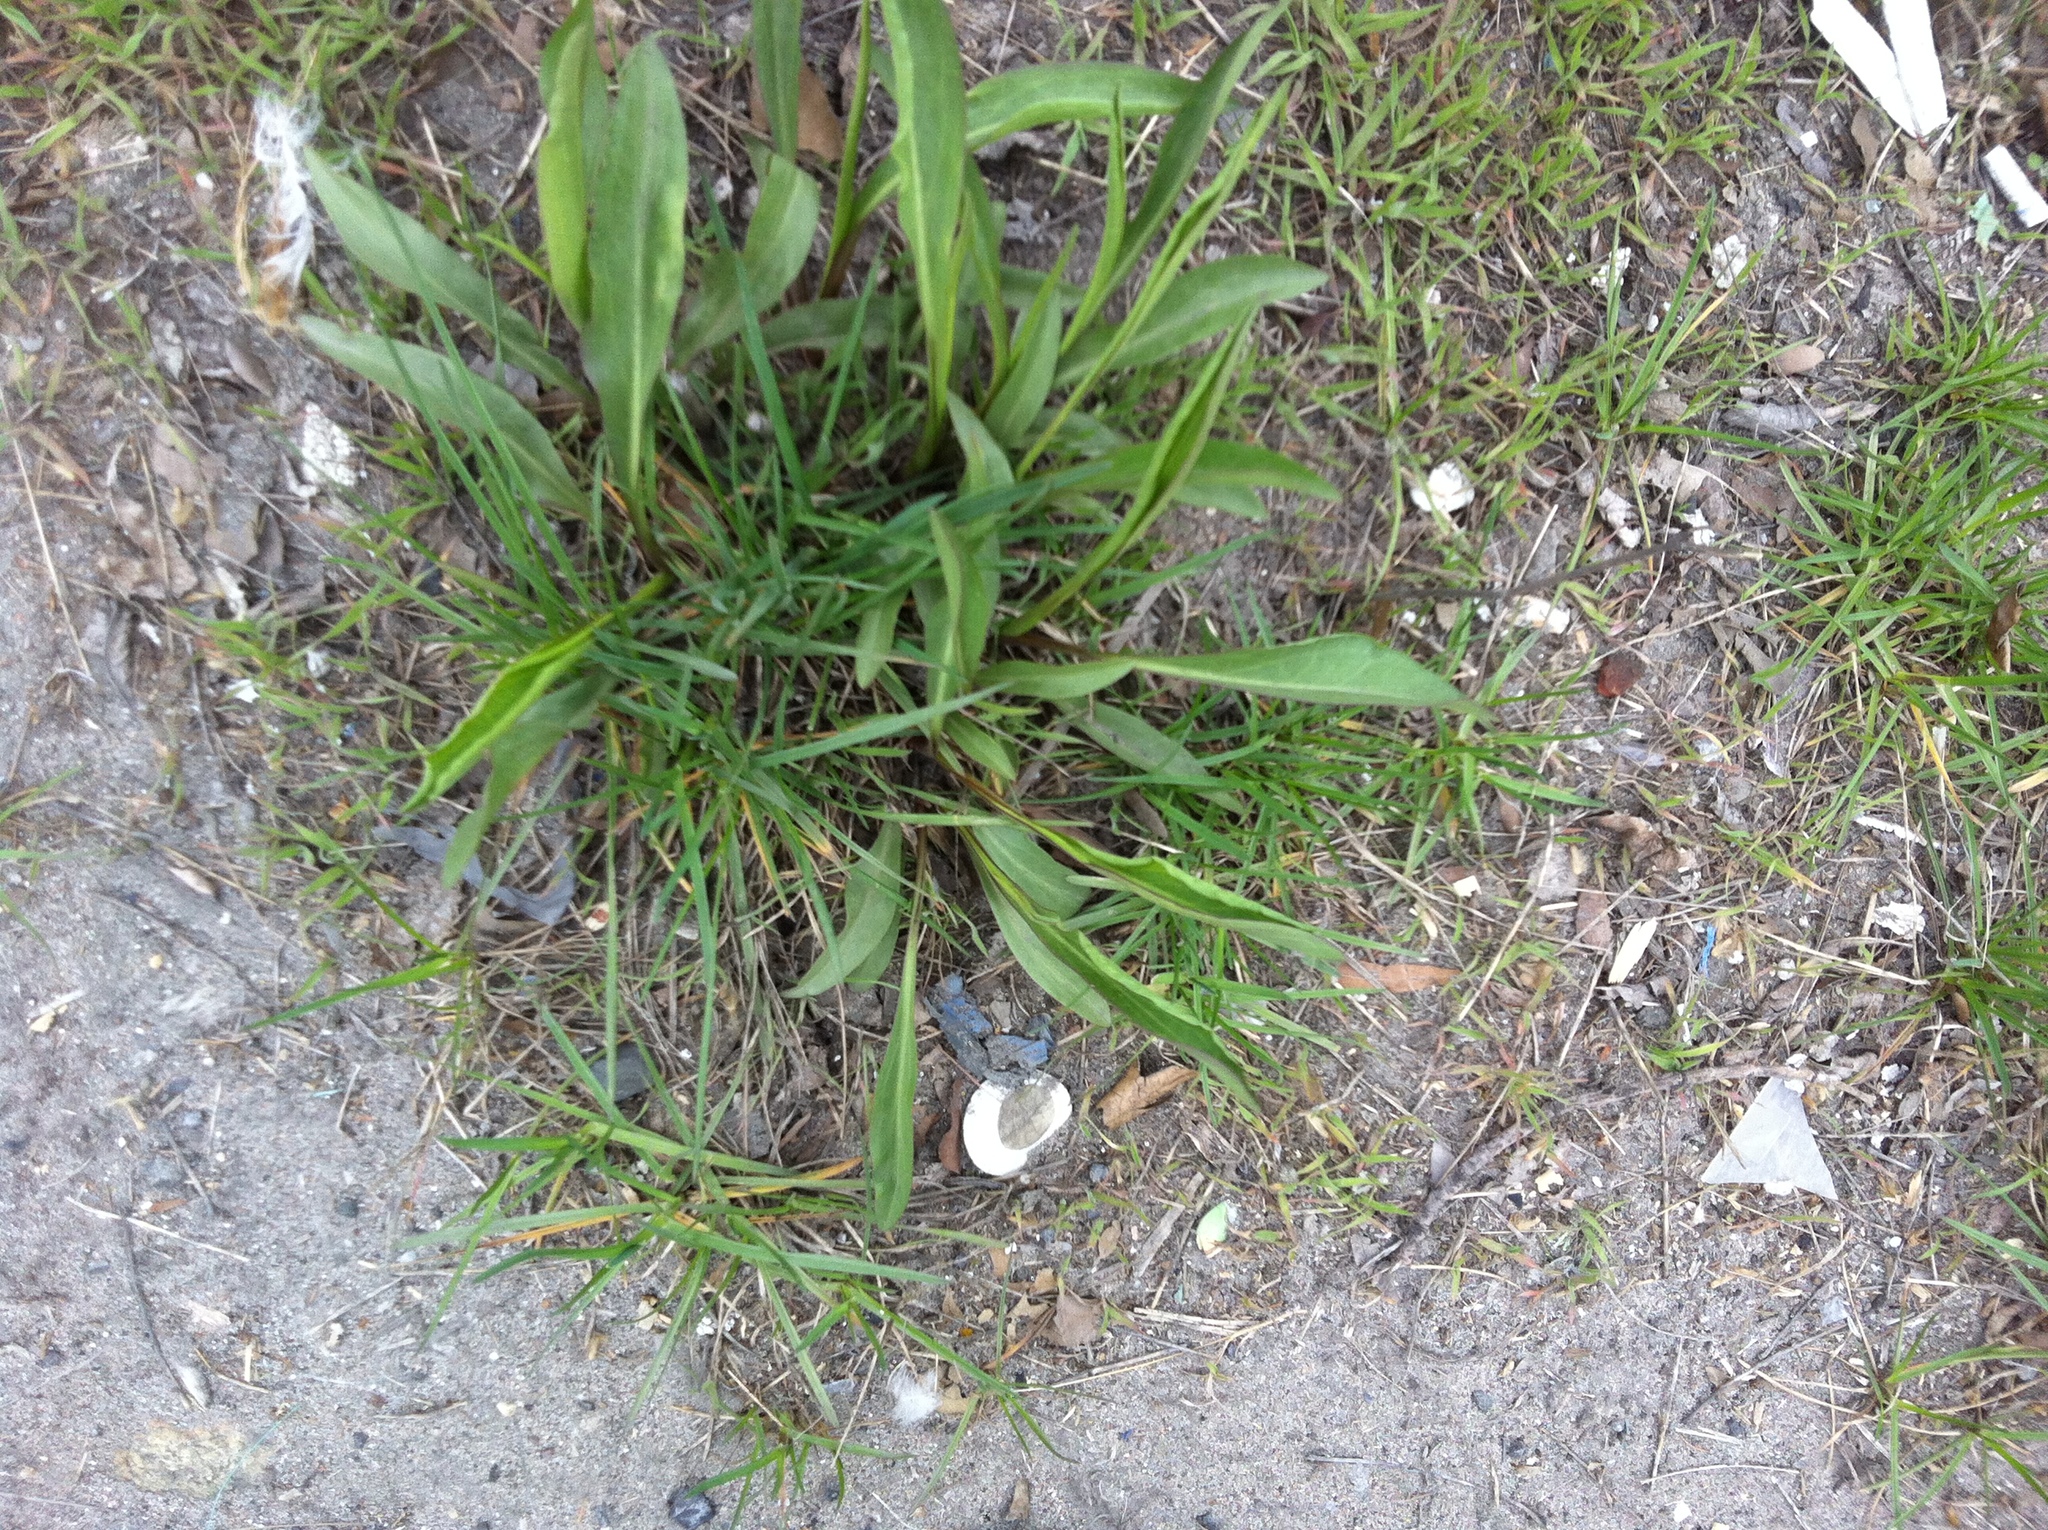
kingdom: Plantae
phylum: Tracheophyta
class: Magnoliopsida
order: Asterales
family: Asteraceae
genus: Solidago
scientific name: Solidago sempervirens
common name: Salt-marsh goldenrod
